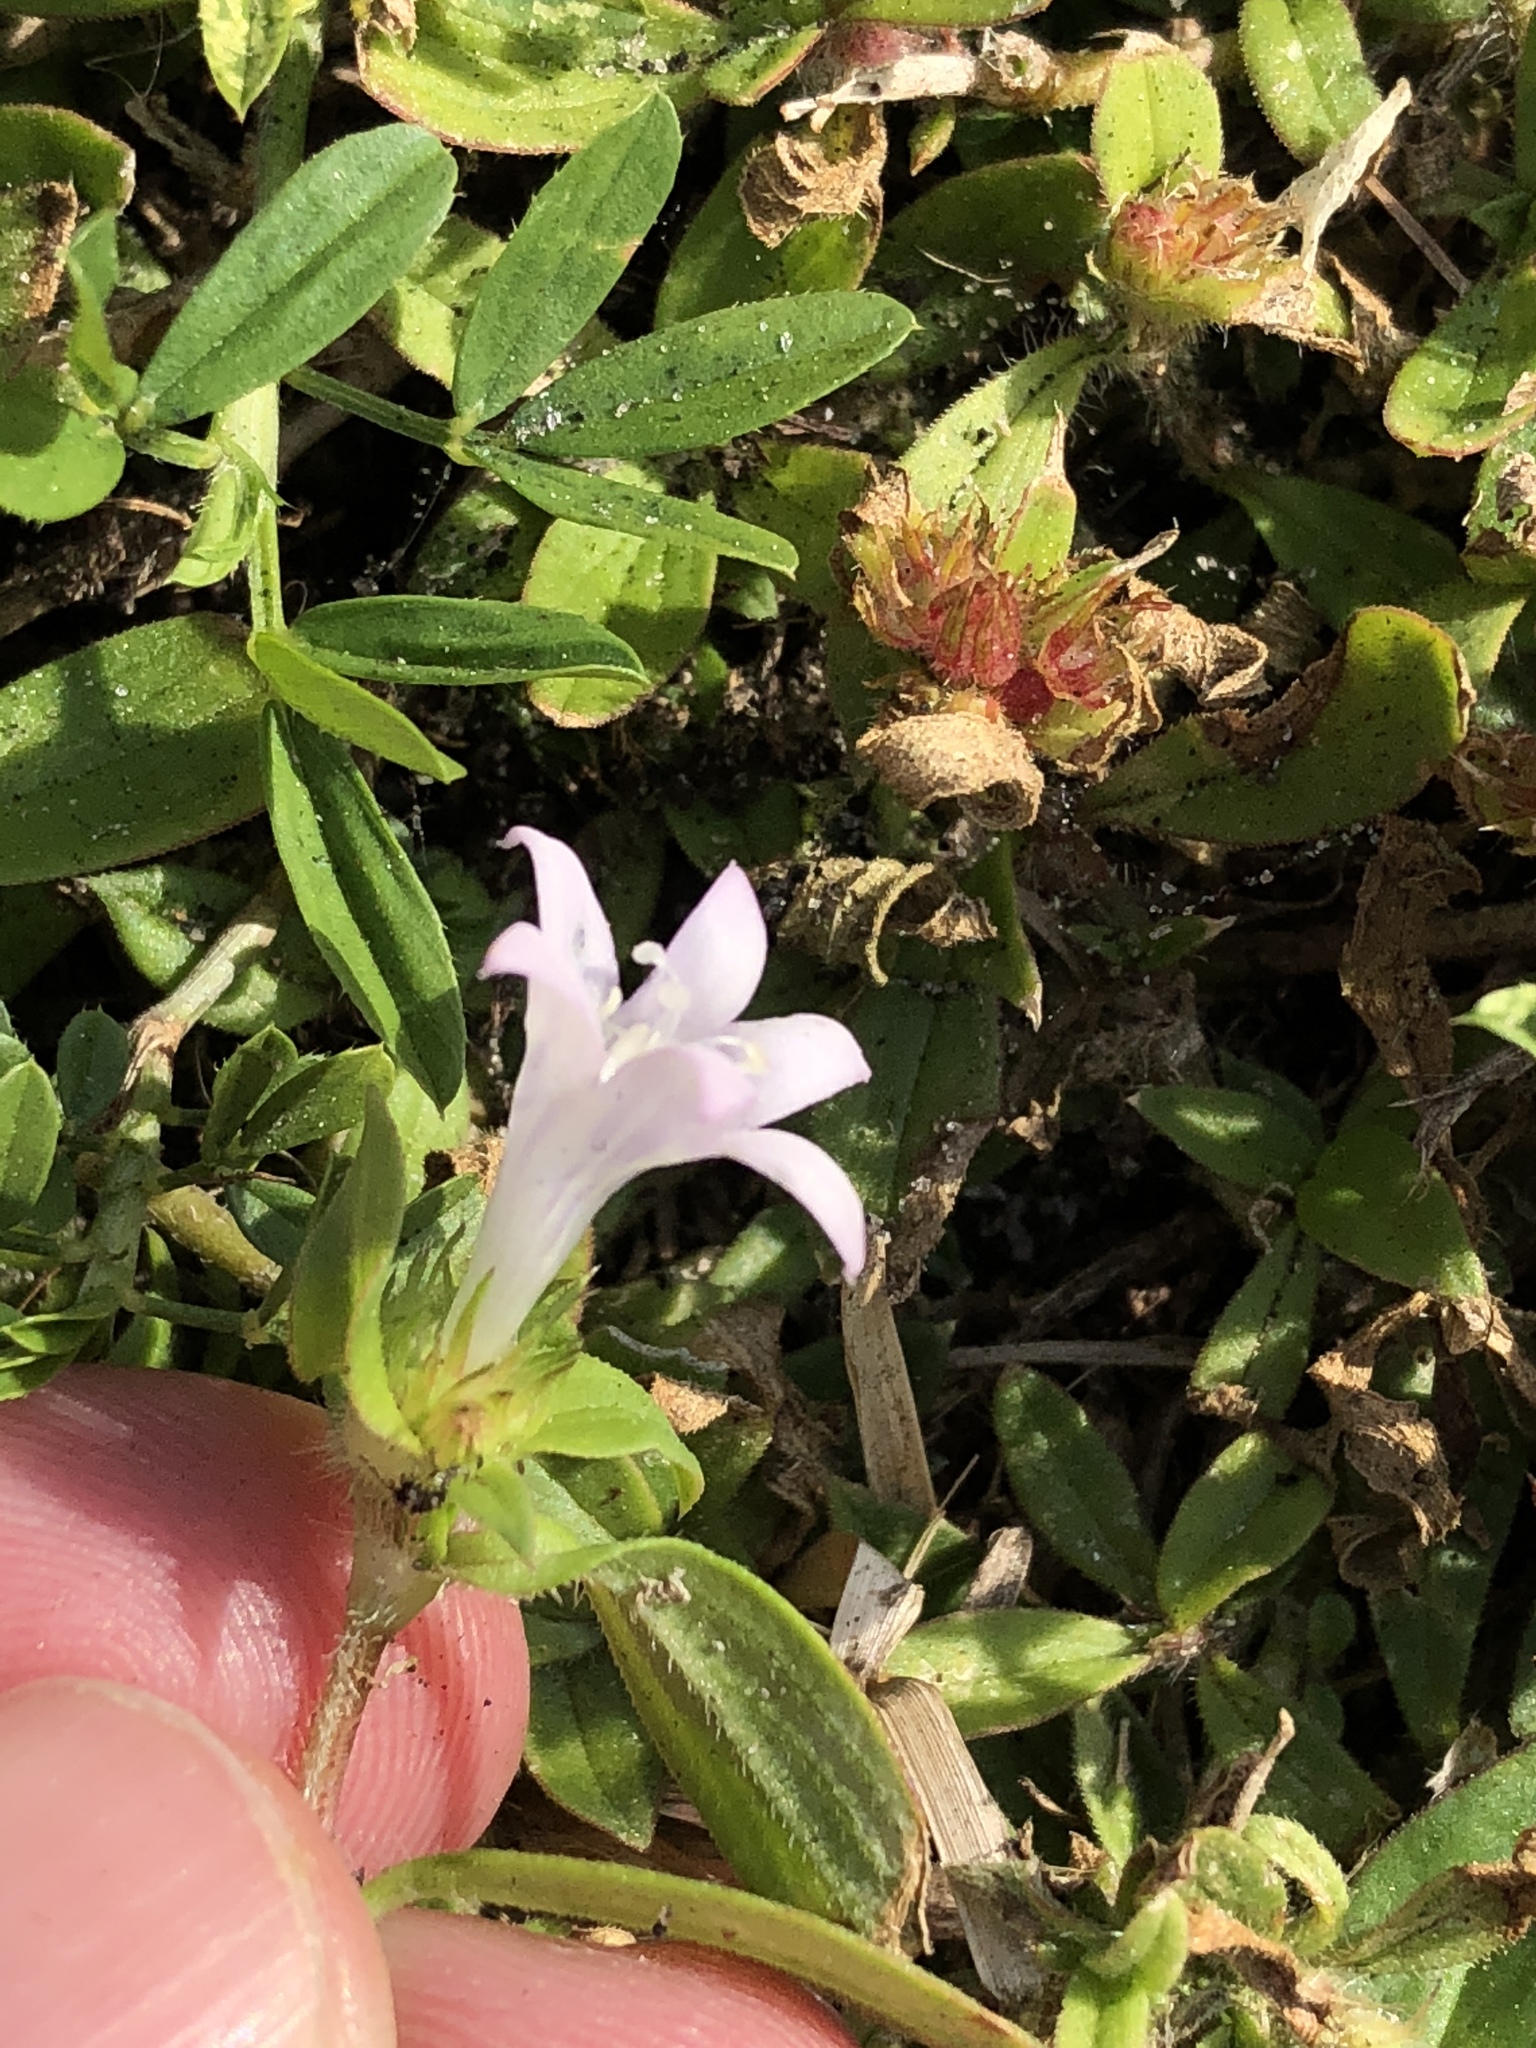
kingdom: Plantae
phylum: Tracheophyta
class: Magnoliopsida
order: Gentianales
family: Rubiaceae
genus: Richardia
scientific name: Richardia grandiflora
